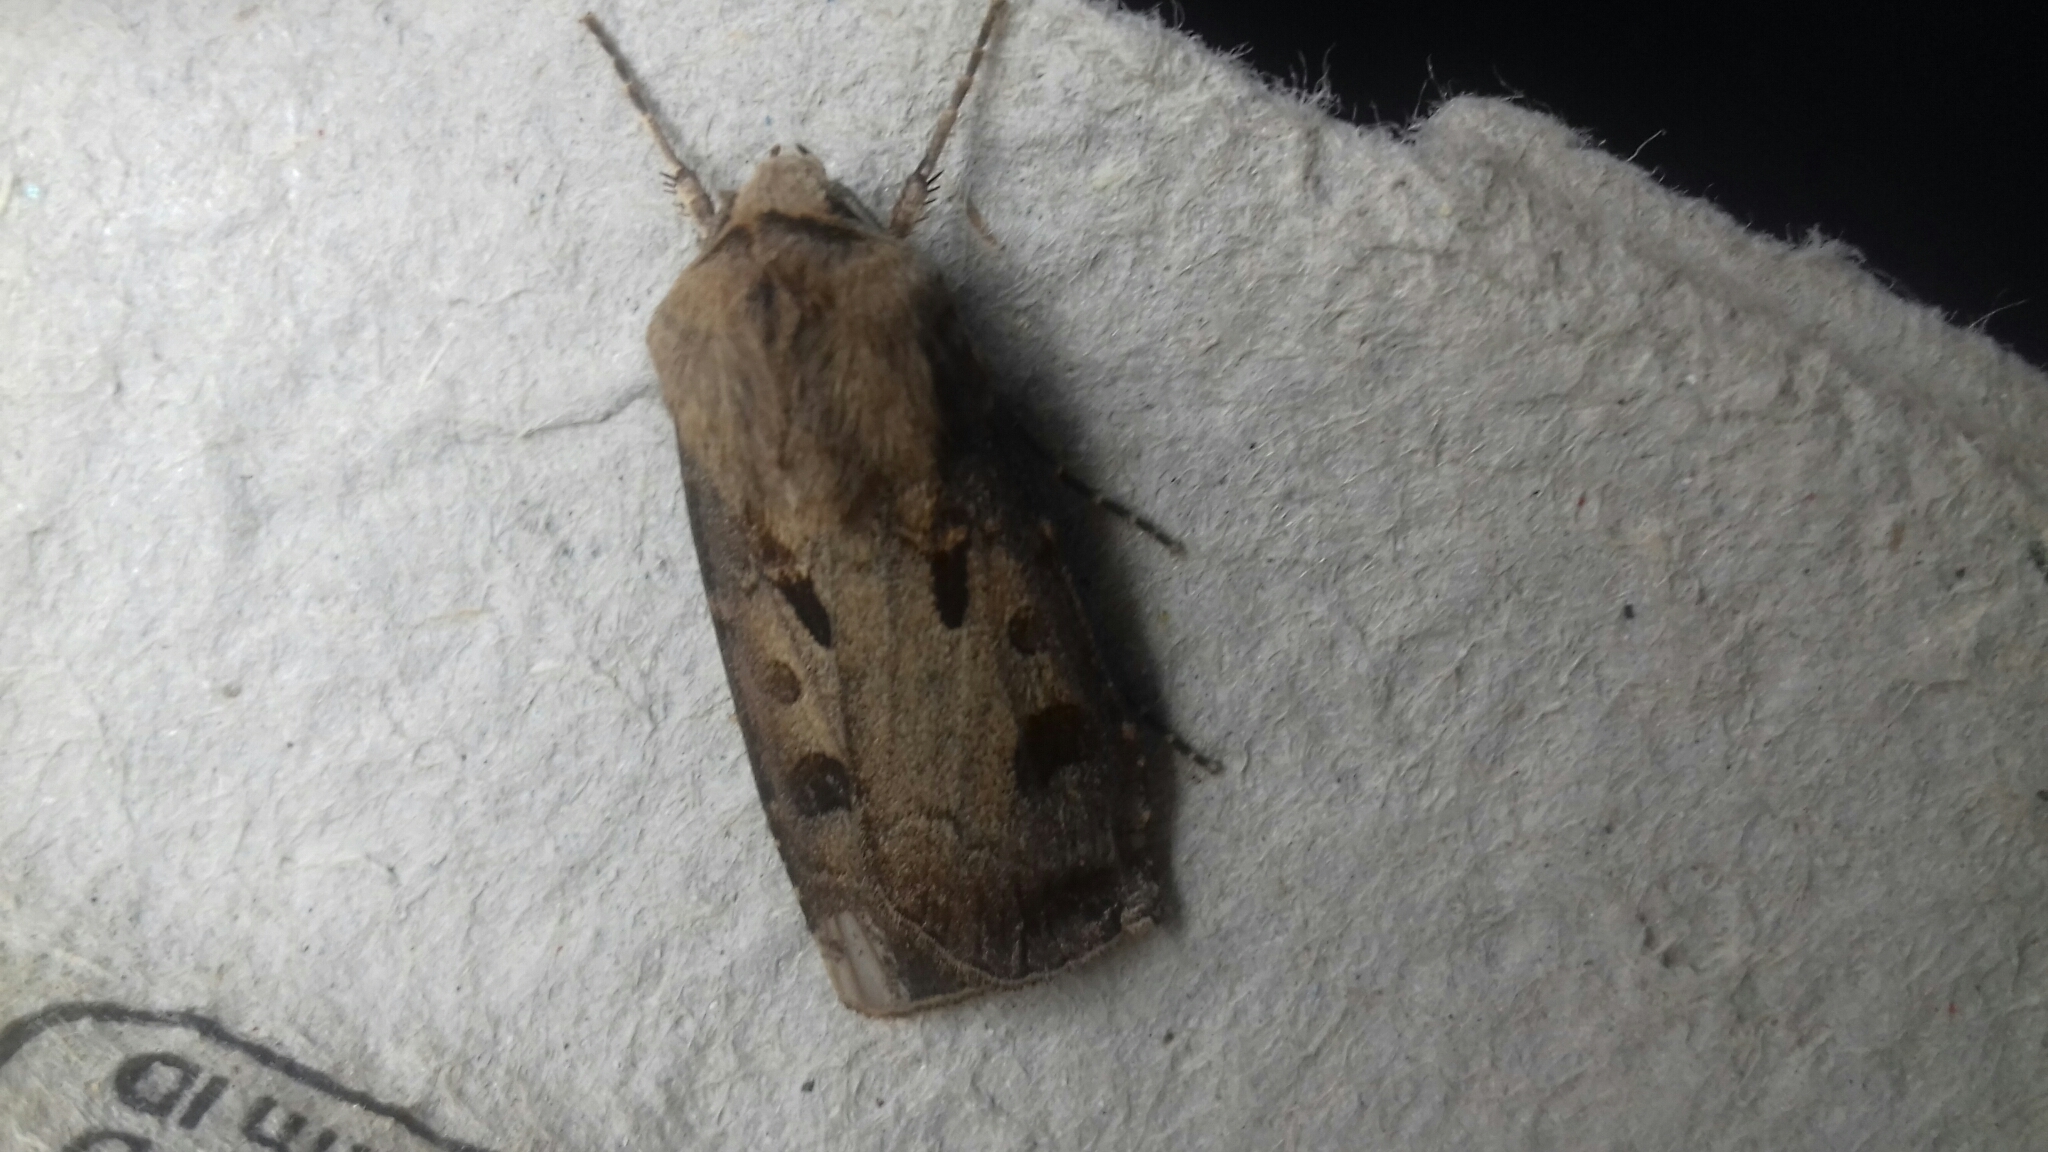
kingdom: Animalia
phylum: Arthropoda
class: Insecta
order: Lepidoptera
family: Noctuidae
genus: Agrotis
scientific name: Agrotis exclamationis
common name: Heart and dart
